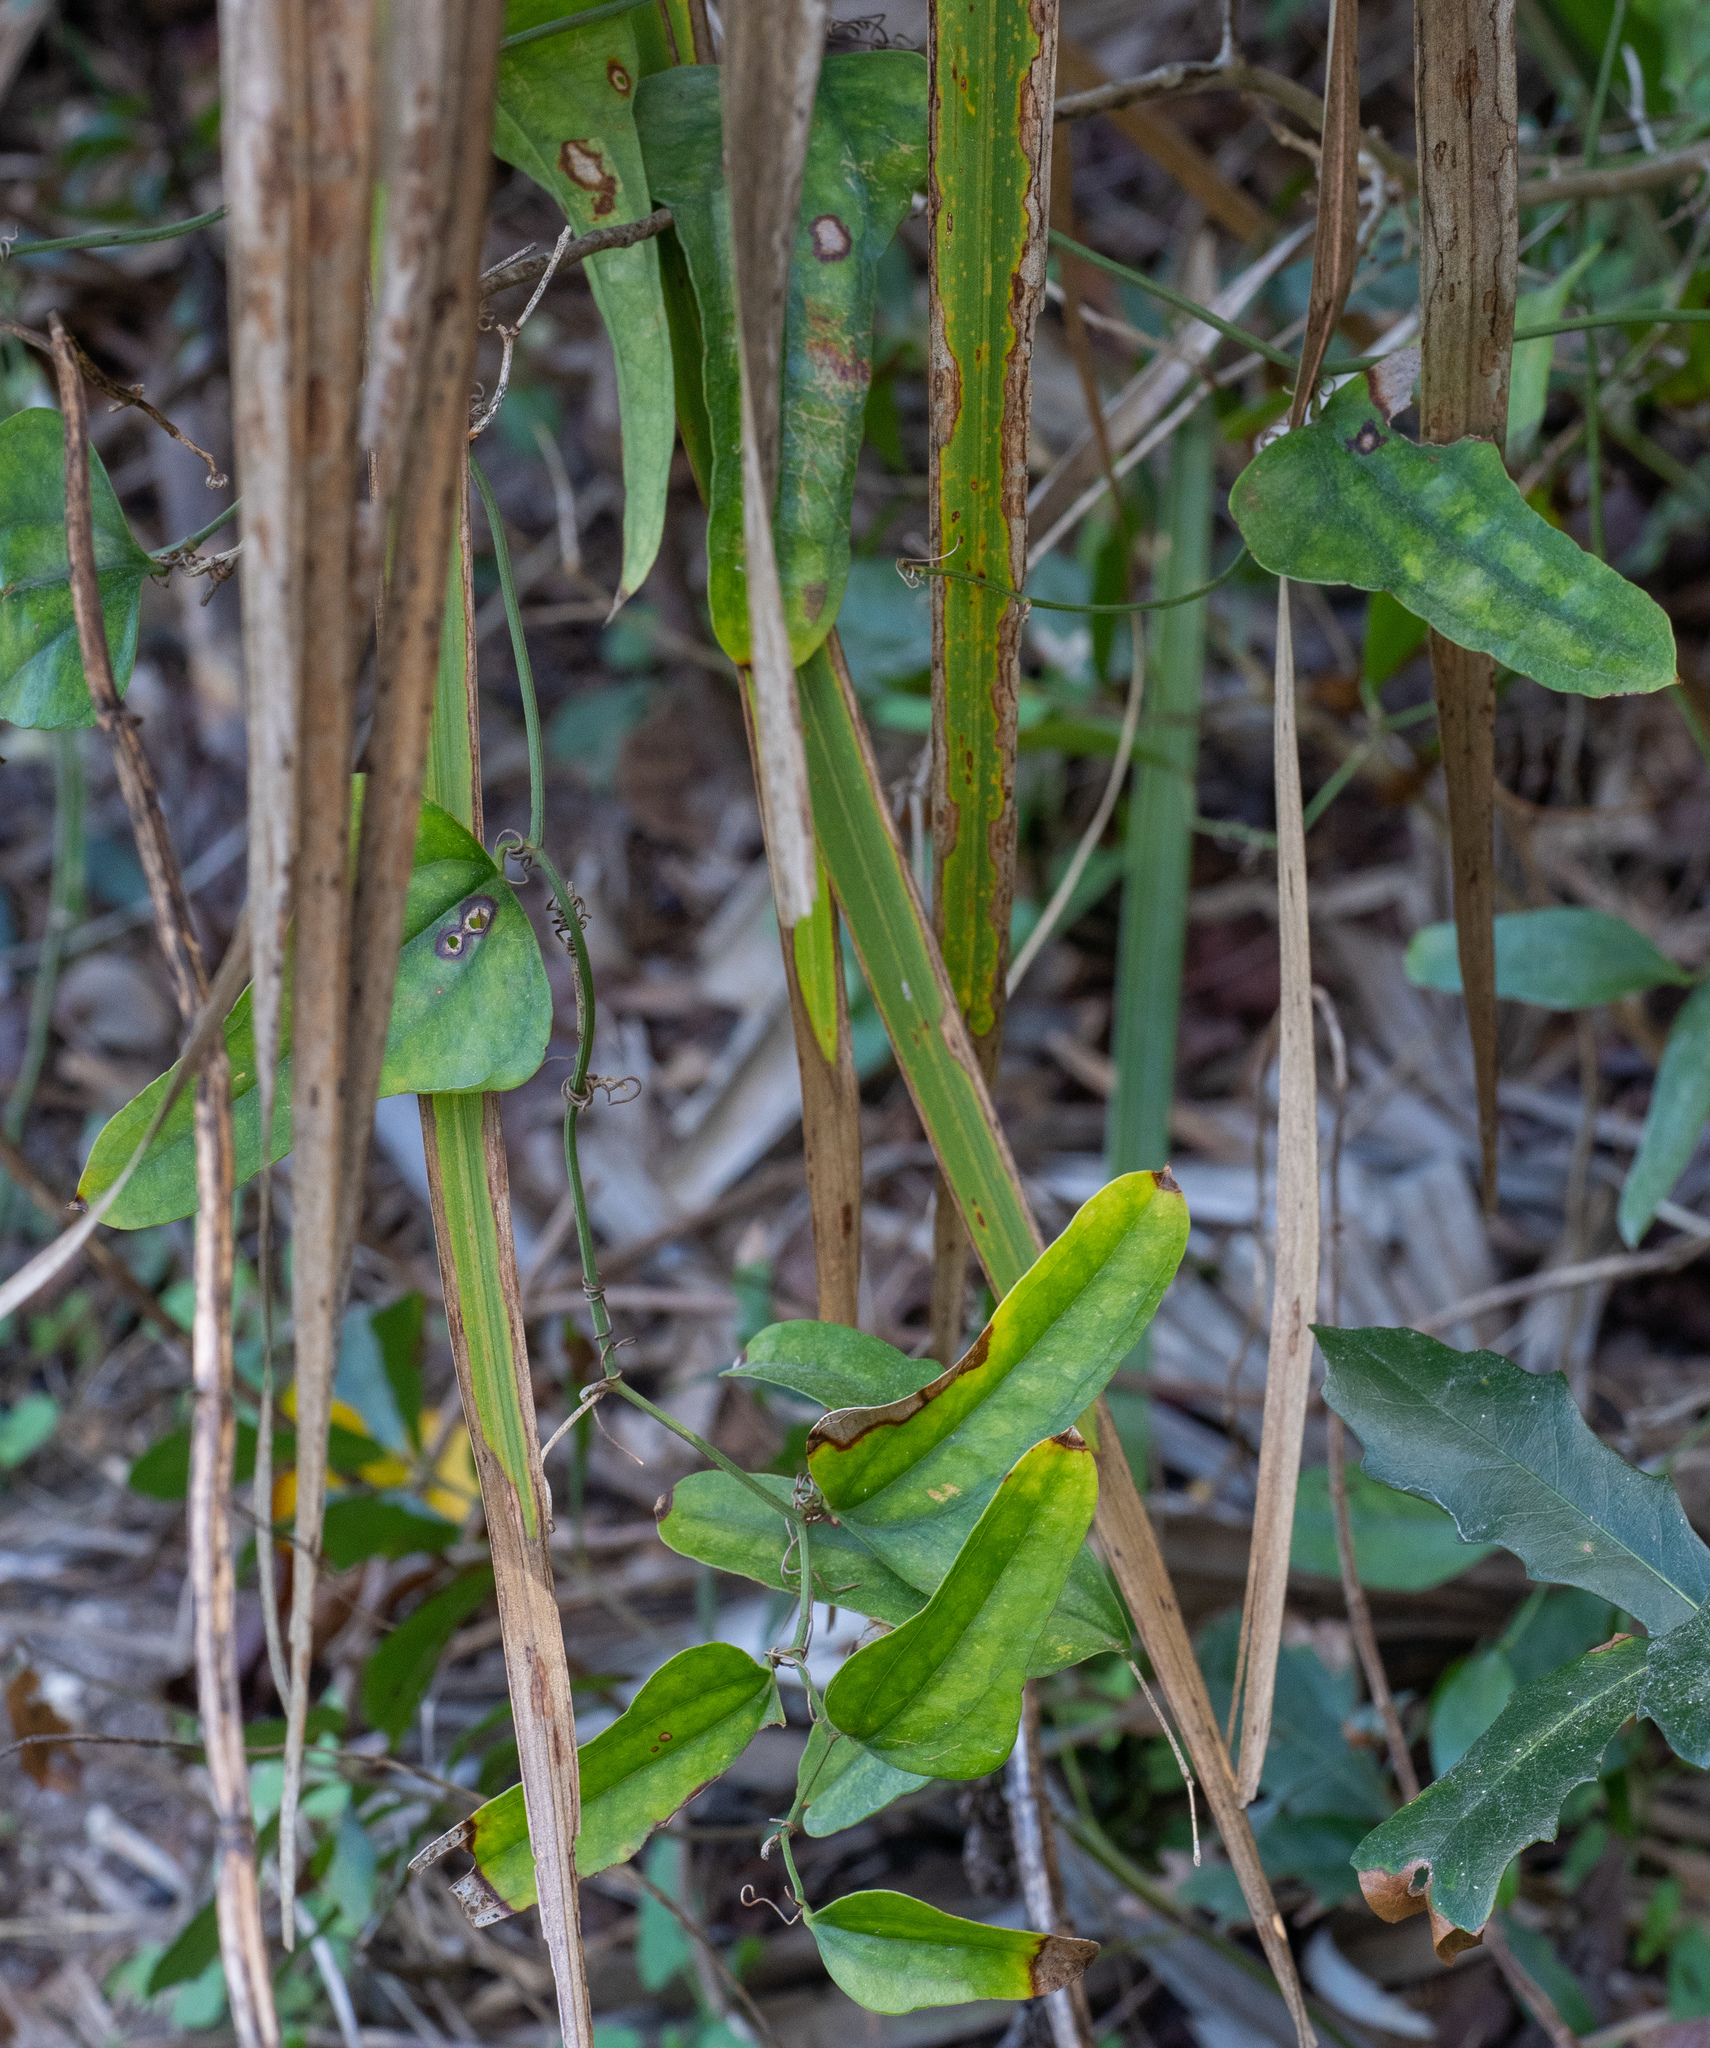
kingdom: Plantae
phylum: Tracheophyta
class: Liliopsida
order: Liliales
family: Smilacaceae
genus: Smilax
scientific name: Smilax auriculata
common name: Wild bamboo
